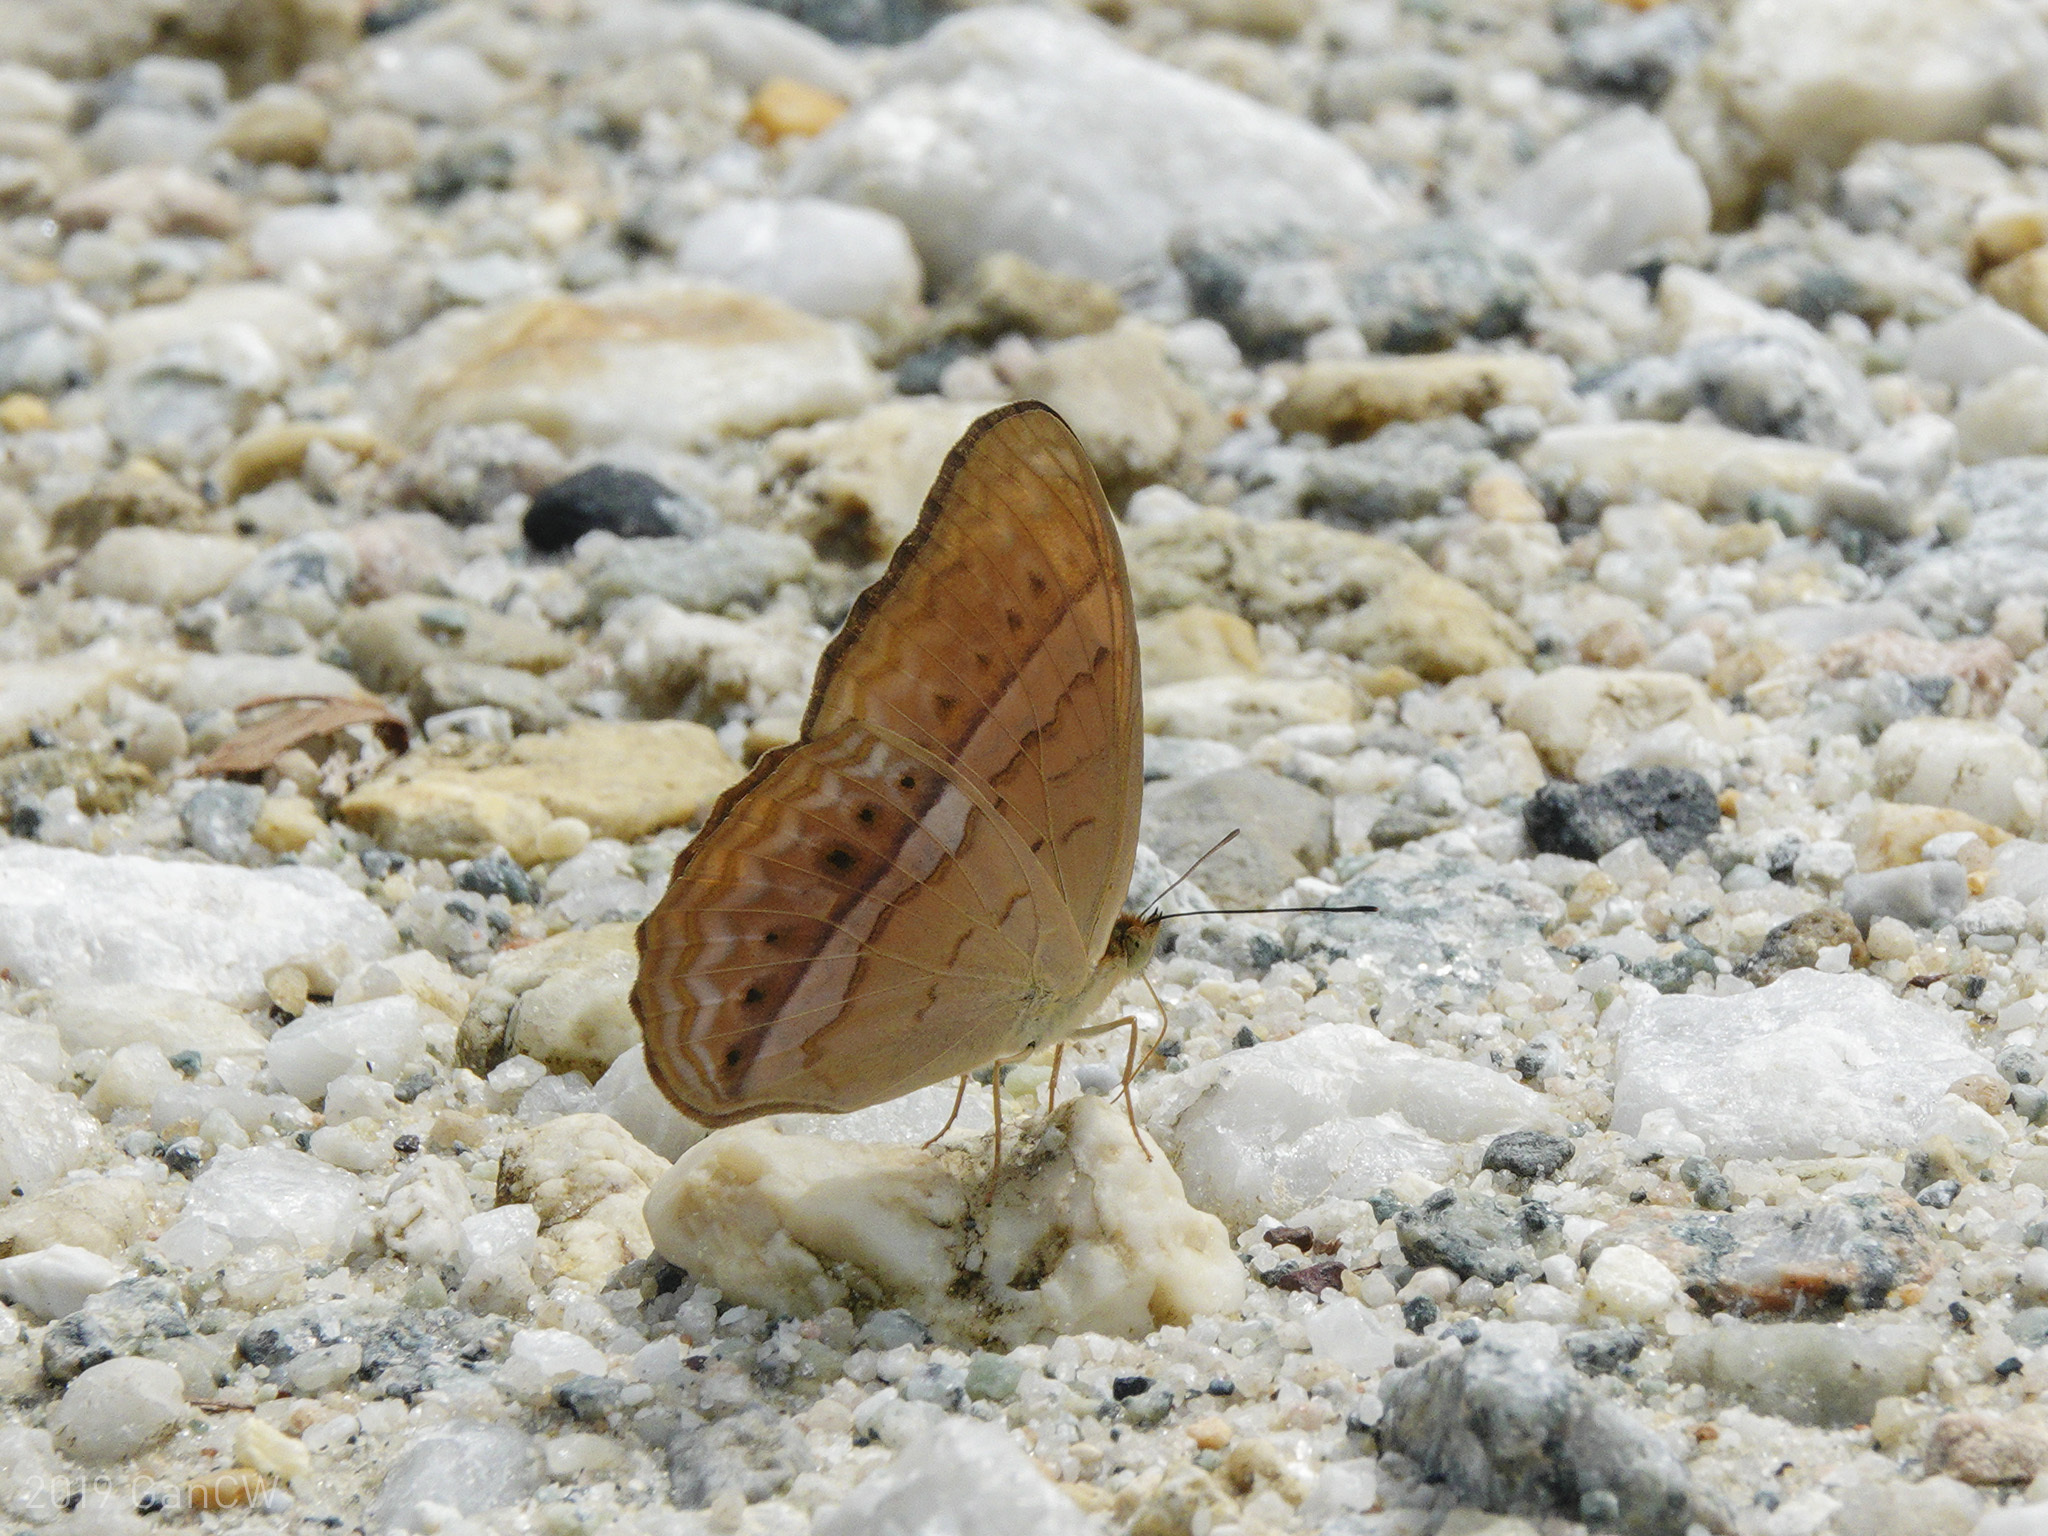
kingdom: Animalia
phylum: Arthropoda
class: Insecta
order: Lepidoptera
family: Nymphalidae
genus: Cirrochroa
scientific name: Cirrochroa tyche
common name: Common yeoman
